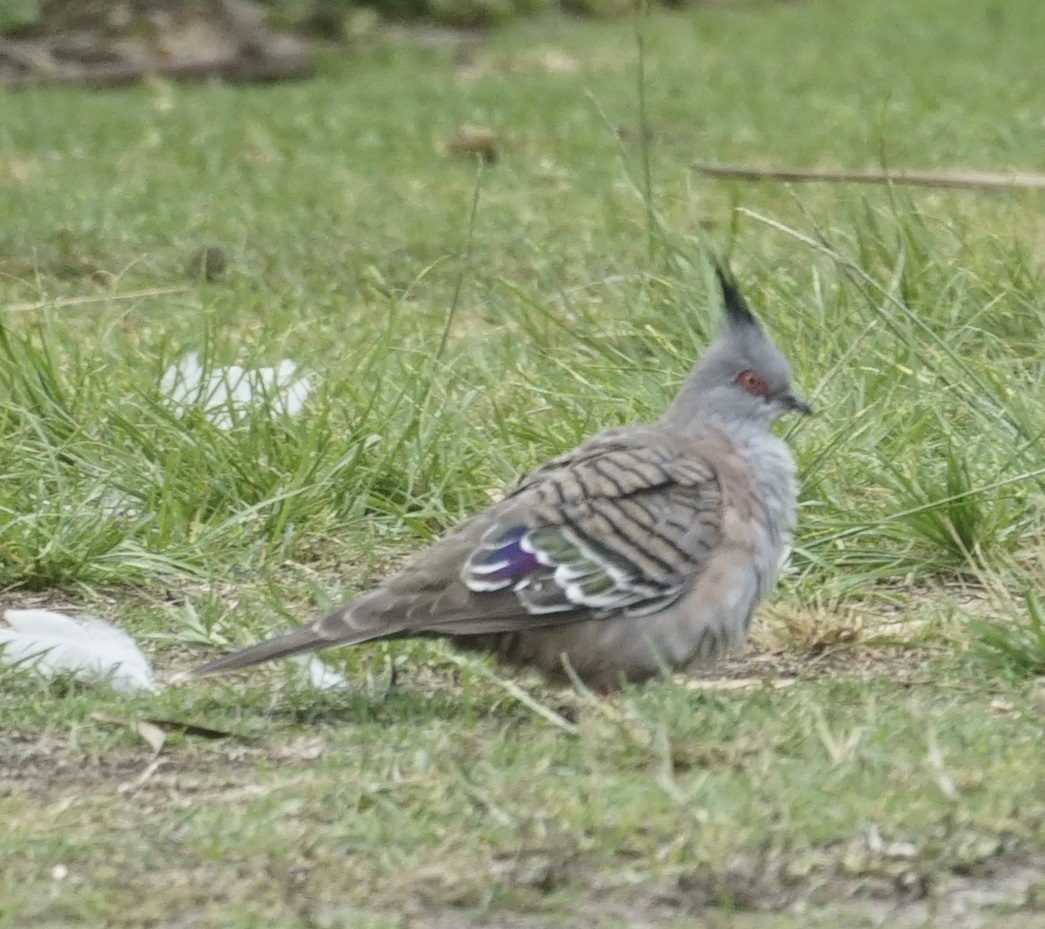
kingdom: Animalia
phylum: Chordata
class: Aves
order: Columbiformes
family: Columbidae
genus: Ocyphaps
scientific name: Ocyphaps lophotes
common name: Crested pigeon
